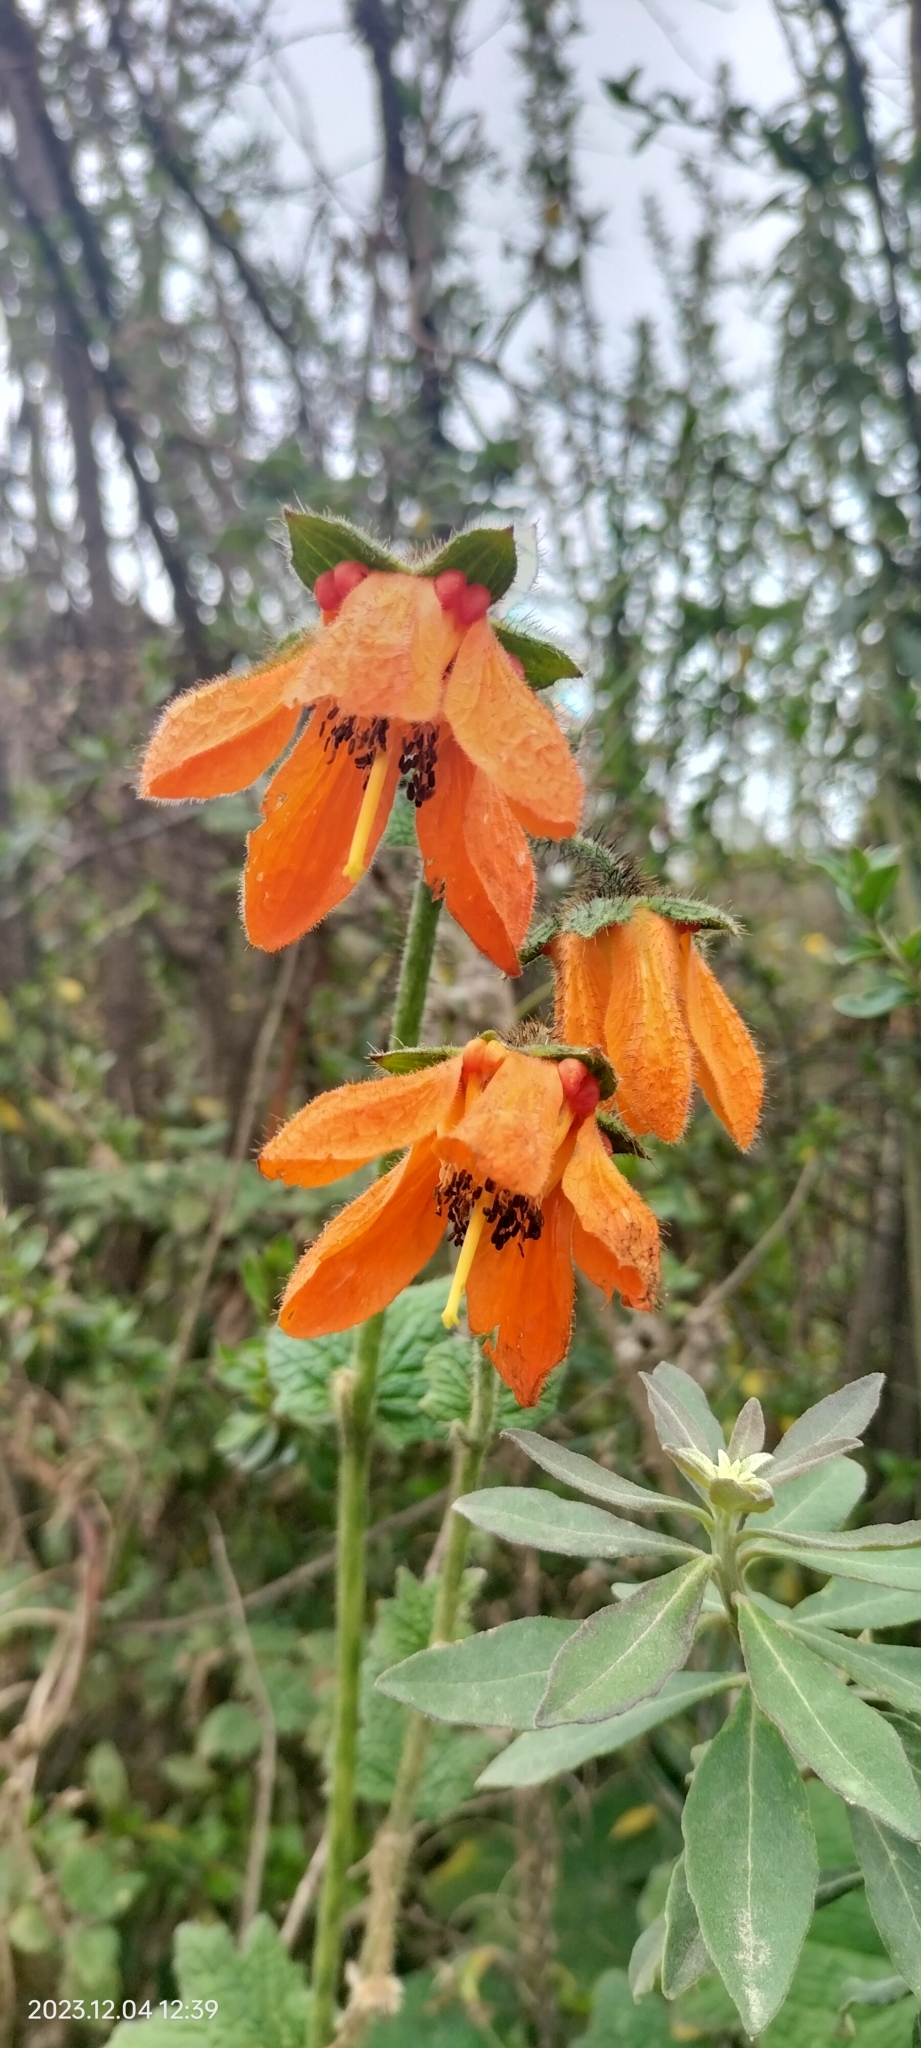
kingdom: Plantae
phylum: Tracheophyta
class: Magnoliopsida
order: Cornales
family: Loasaceae
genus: Nasa
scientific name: Nasa ranunculifolia
